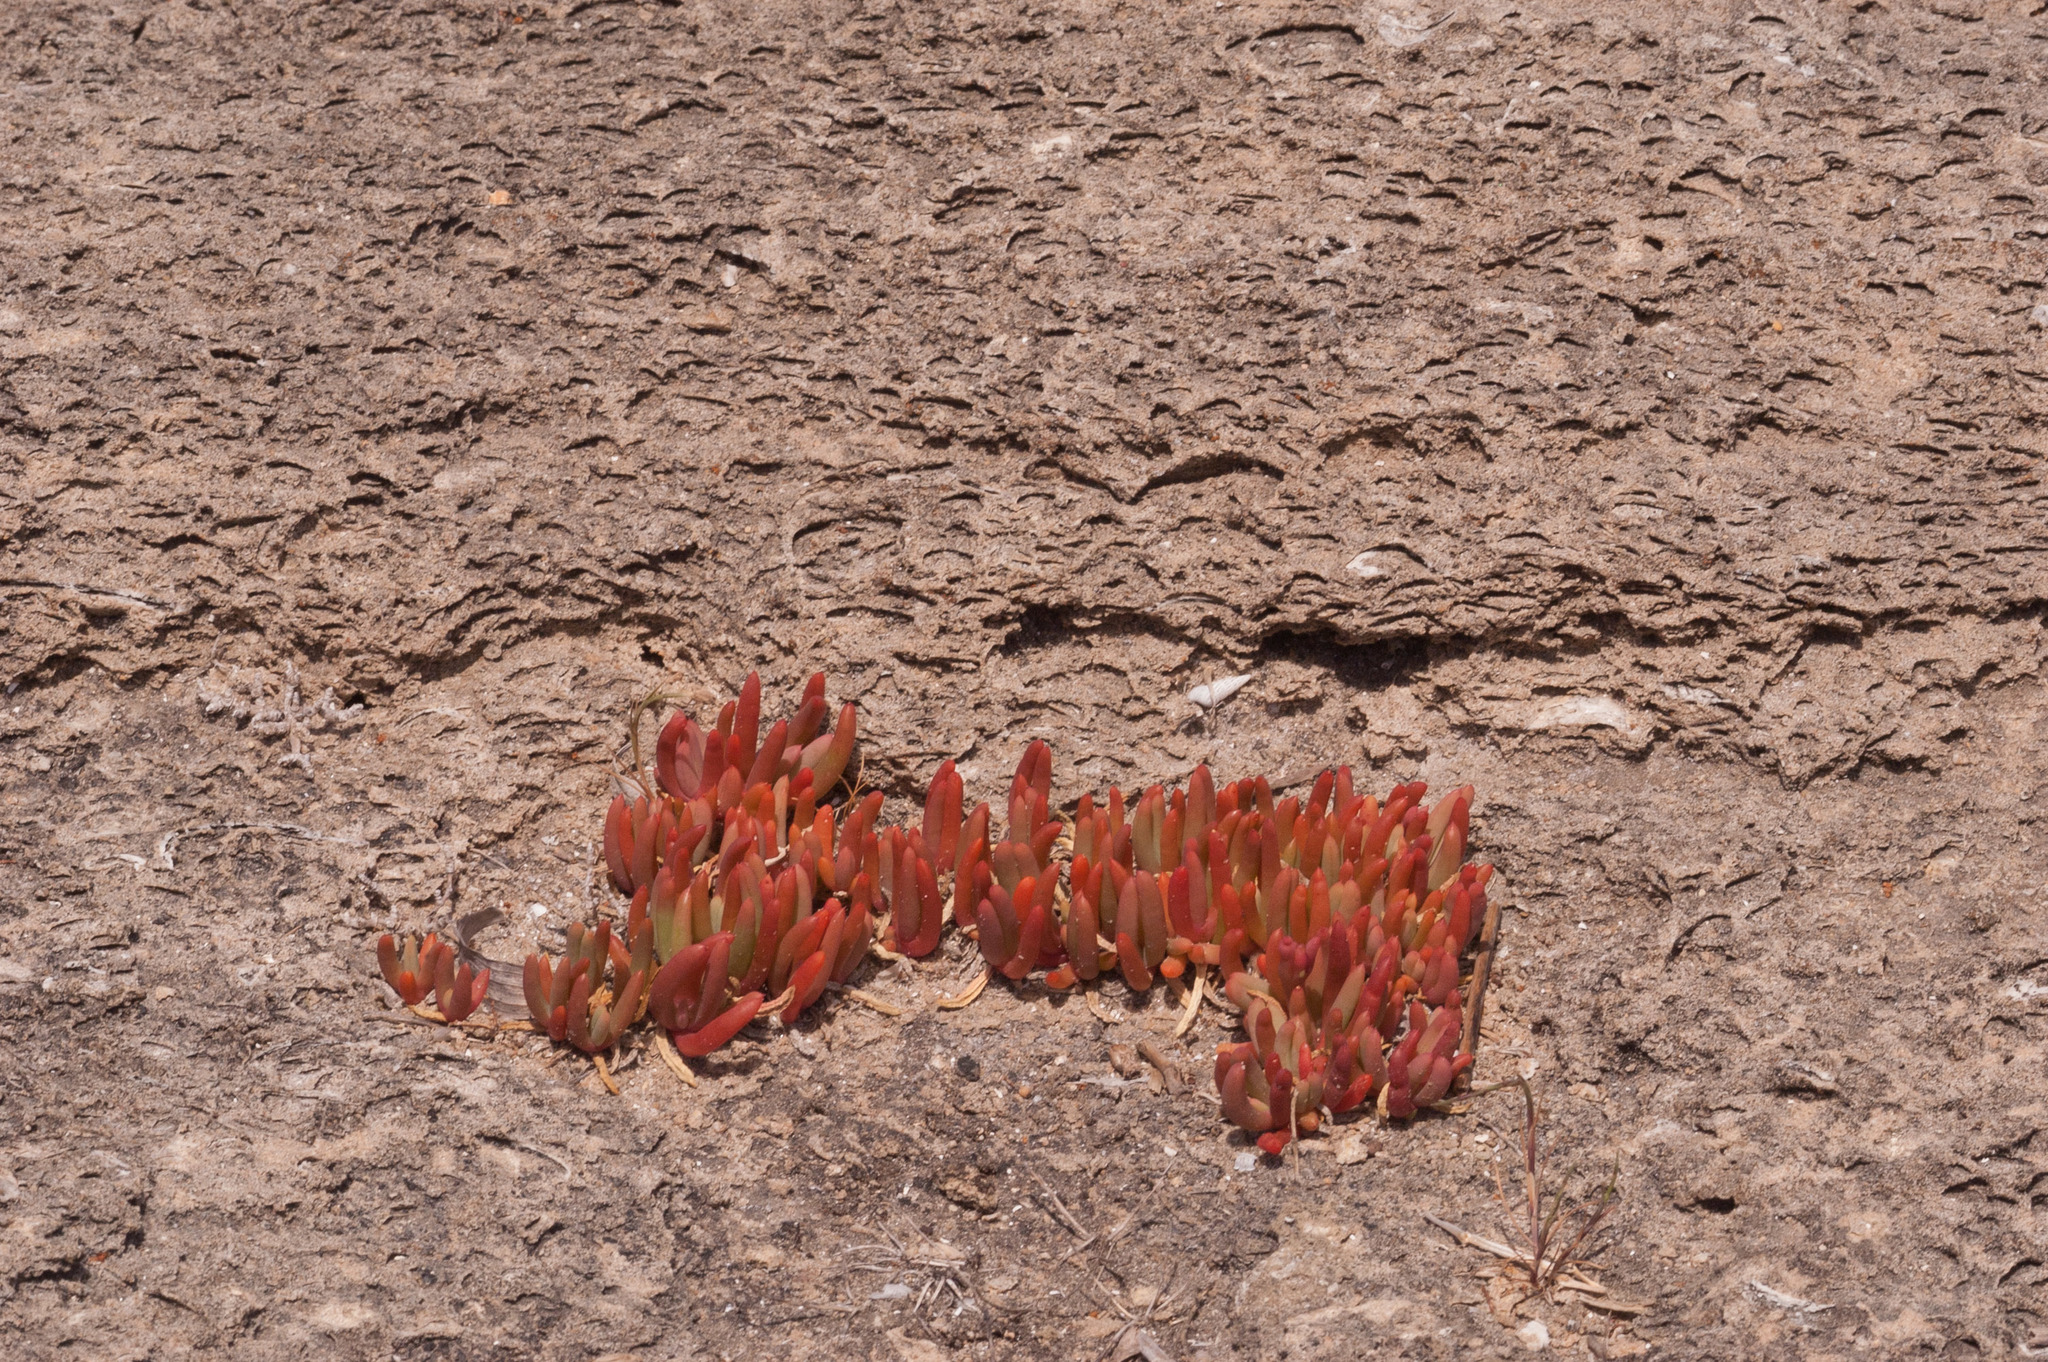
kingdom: Plantae
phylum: Tracheophyta
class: Magnoliopsida
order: Caryophyllales
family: Aizoaceae
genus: Disphyma
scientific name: Disphyma clavellatum
